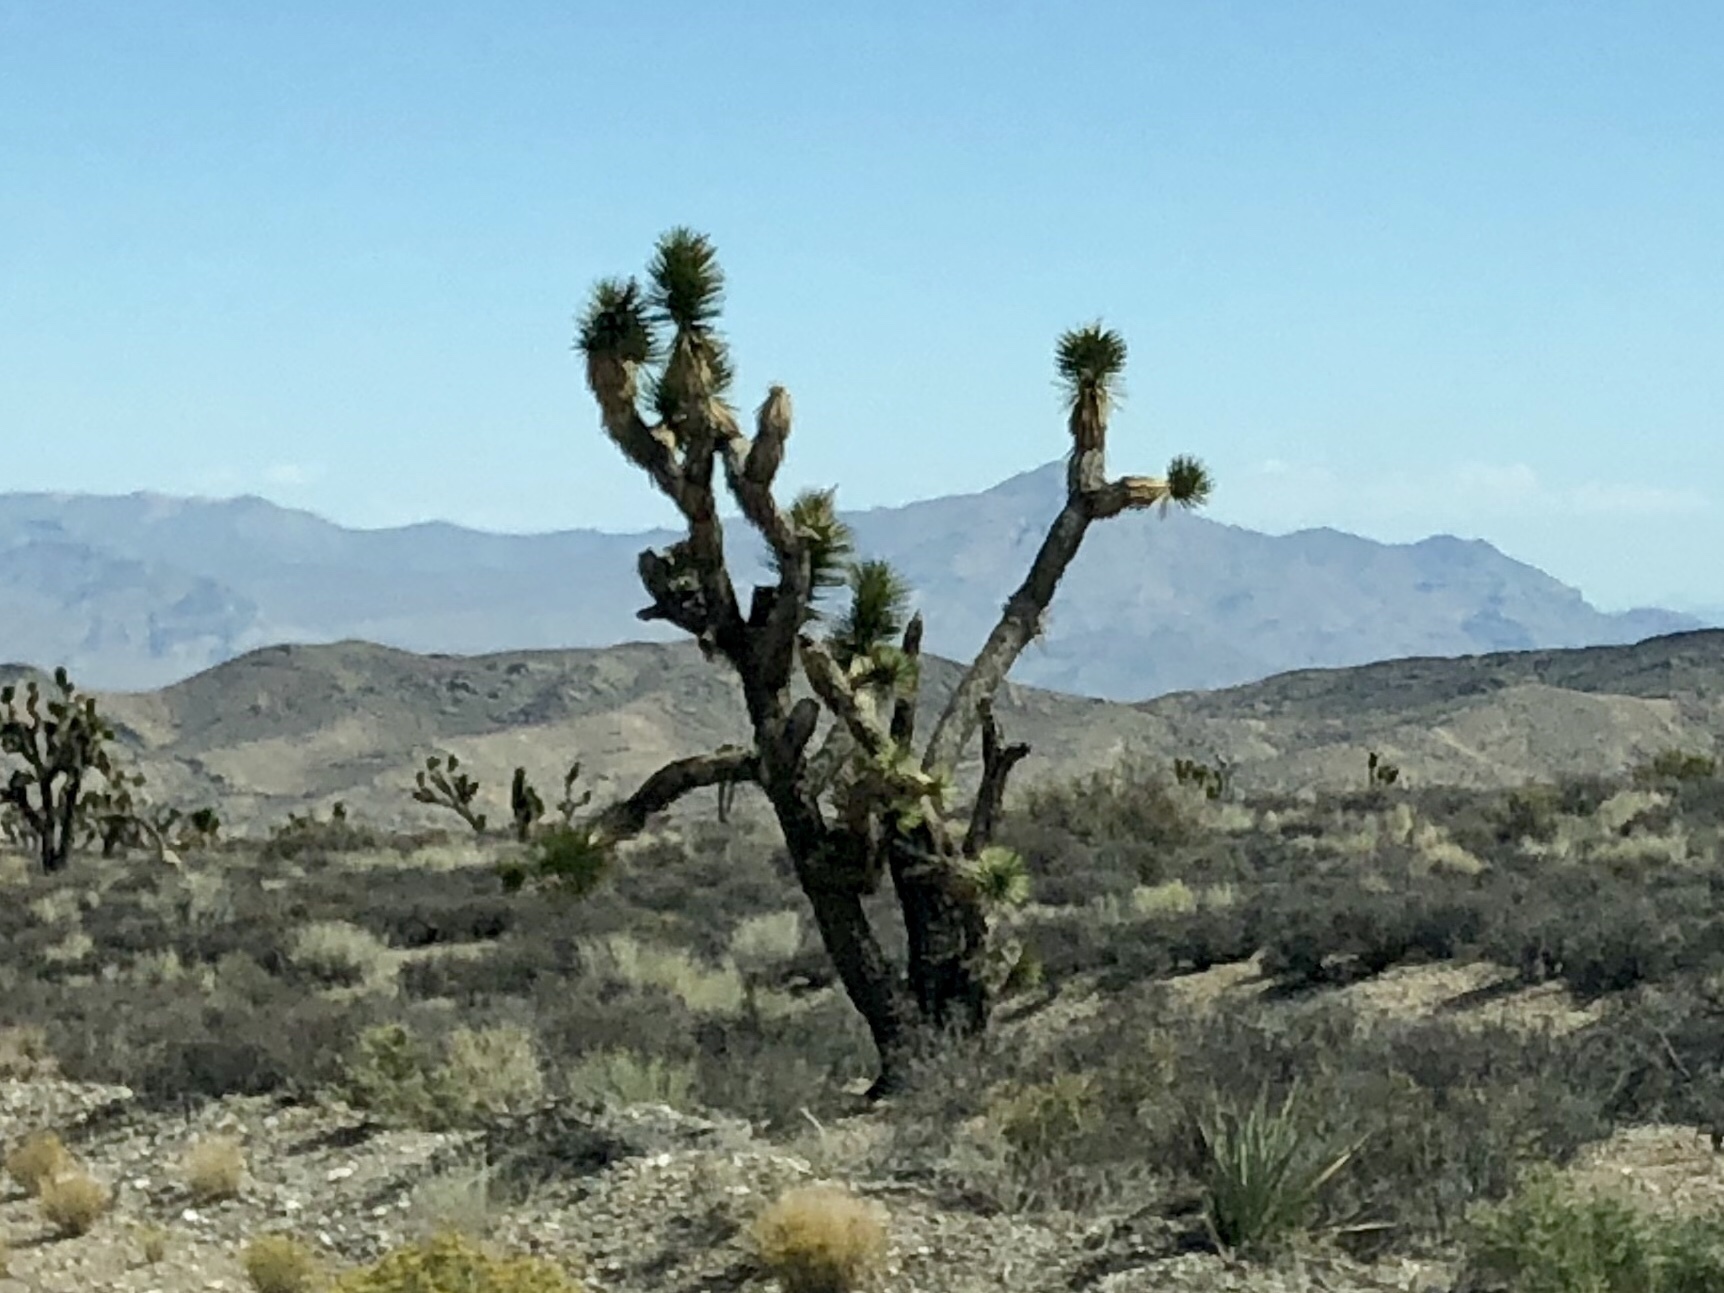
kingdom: Plantae
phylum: Tracheophyta
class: Liliopsida
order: Asparagales
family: Asparagaceae
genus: Yucca
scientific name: Yucca brevifolia
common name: Joshua tree
